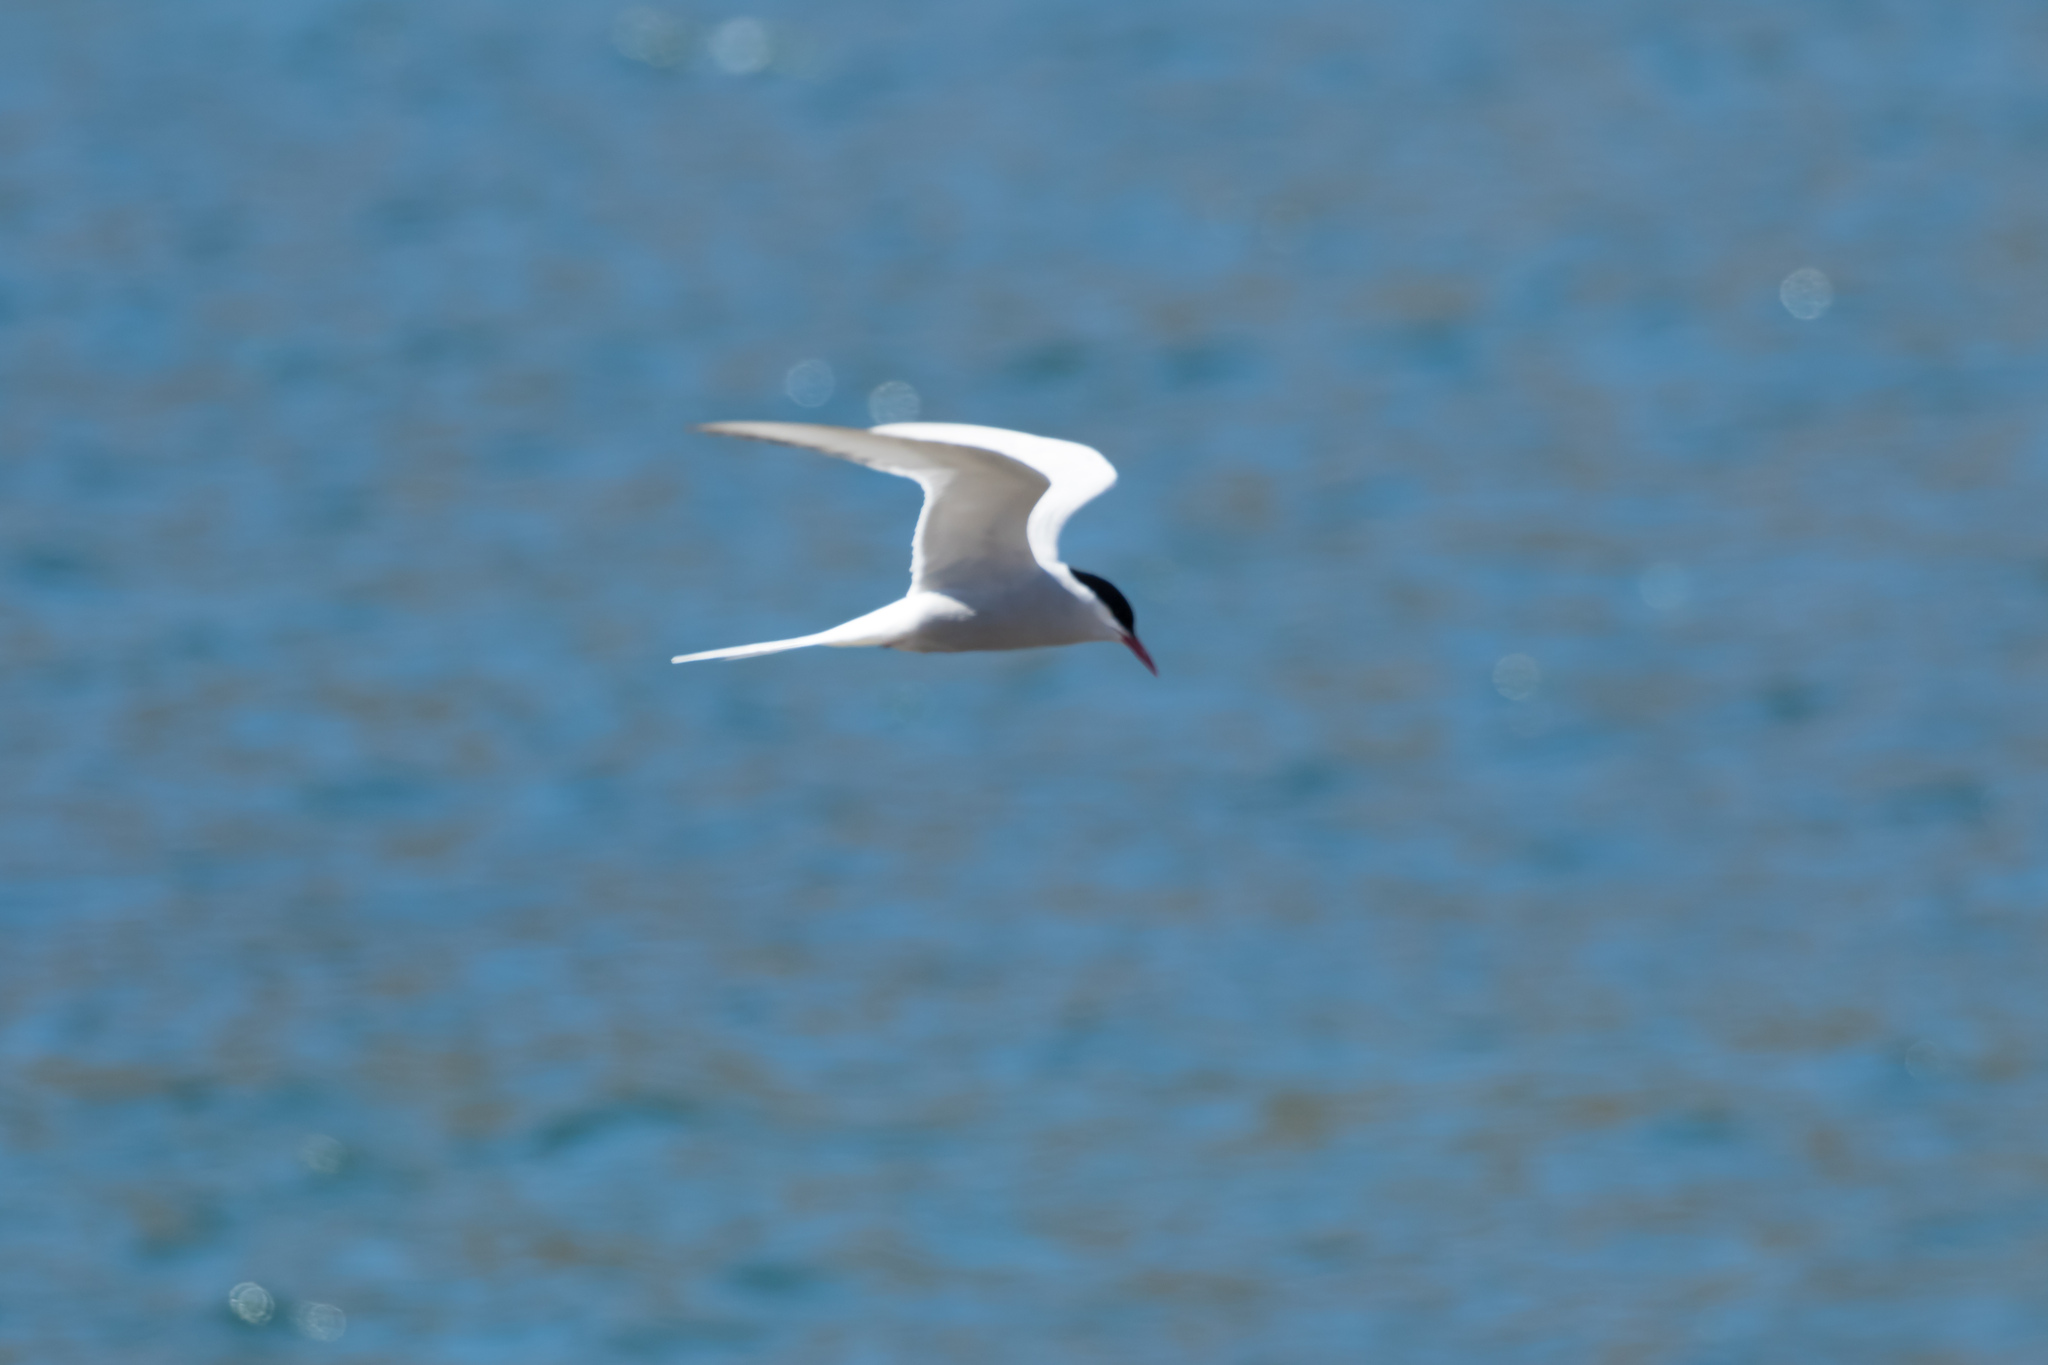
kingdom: Animalia
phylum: Chordata
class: Aves
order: Charadriiformes
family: Laridae
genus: Sterna
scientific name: Sterna paradisaea
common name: Arctic tern
